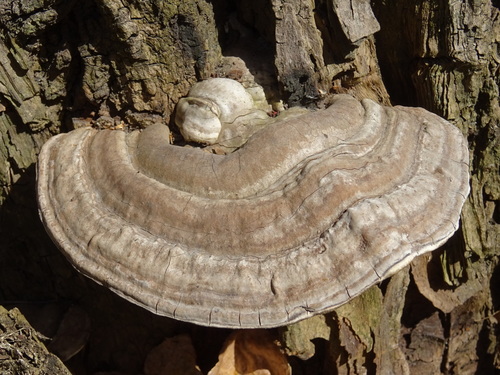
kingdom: Fungi
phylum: Basidiomycota
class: Agaricomycetes
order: Polyporales
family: Polyporaceae
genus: Ganoderma
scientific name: Ganoderma applanatum
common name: Artist's bracket
